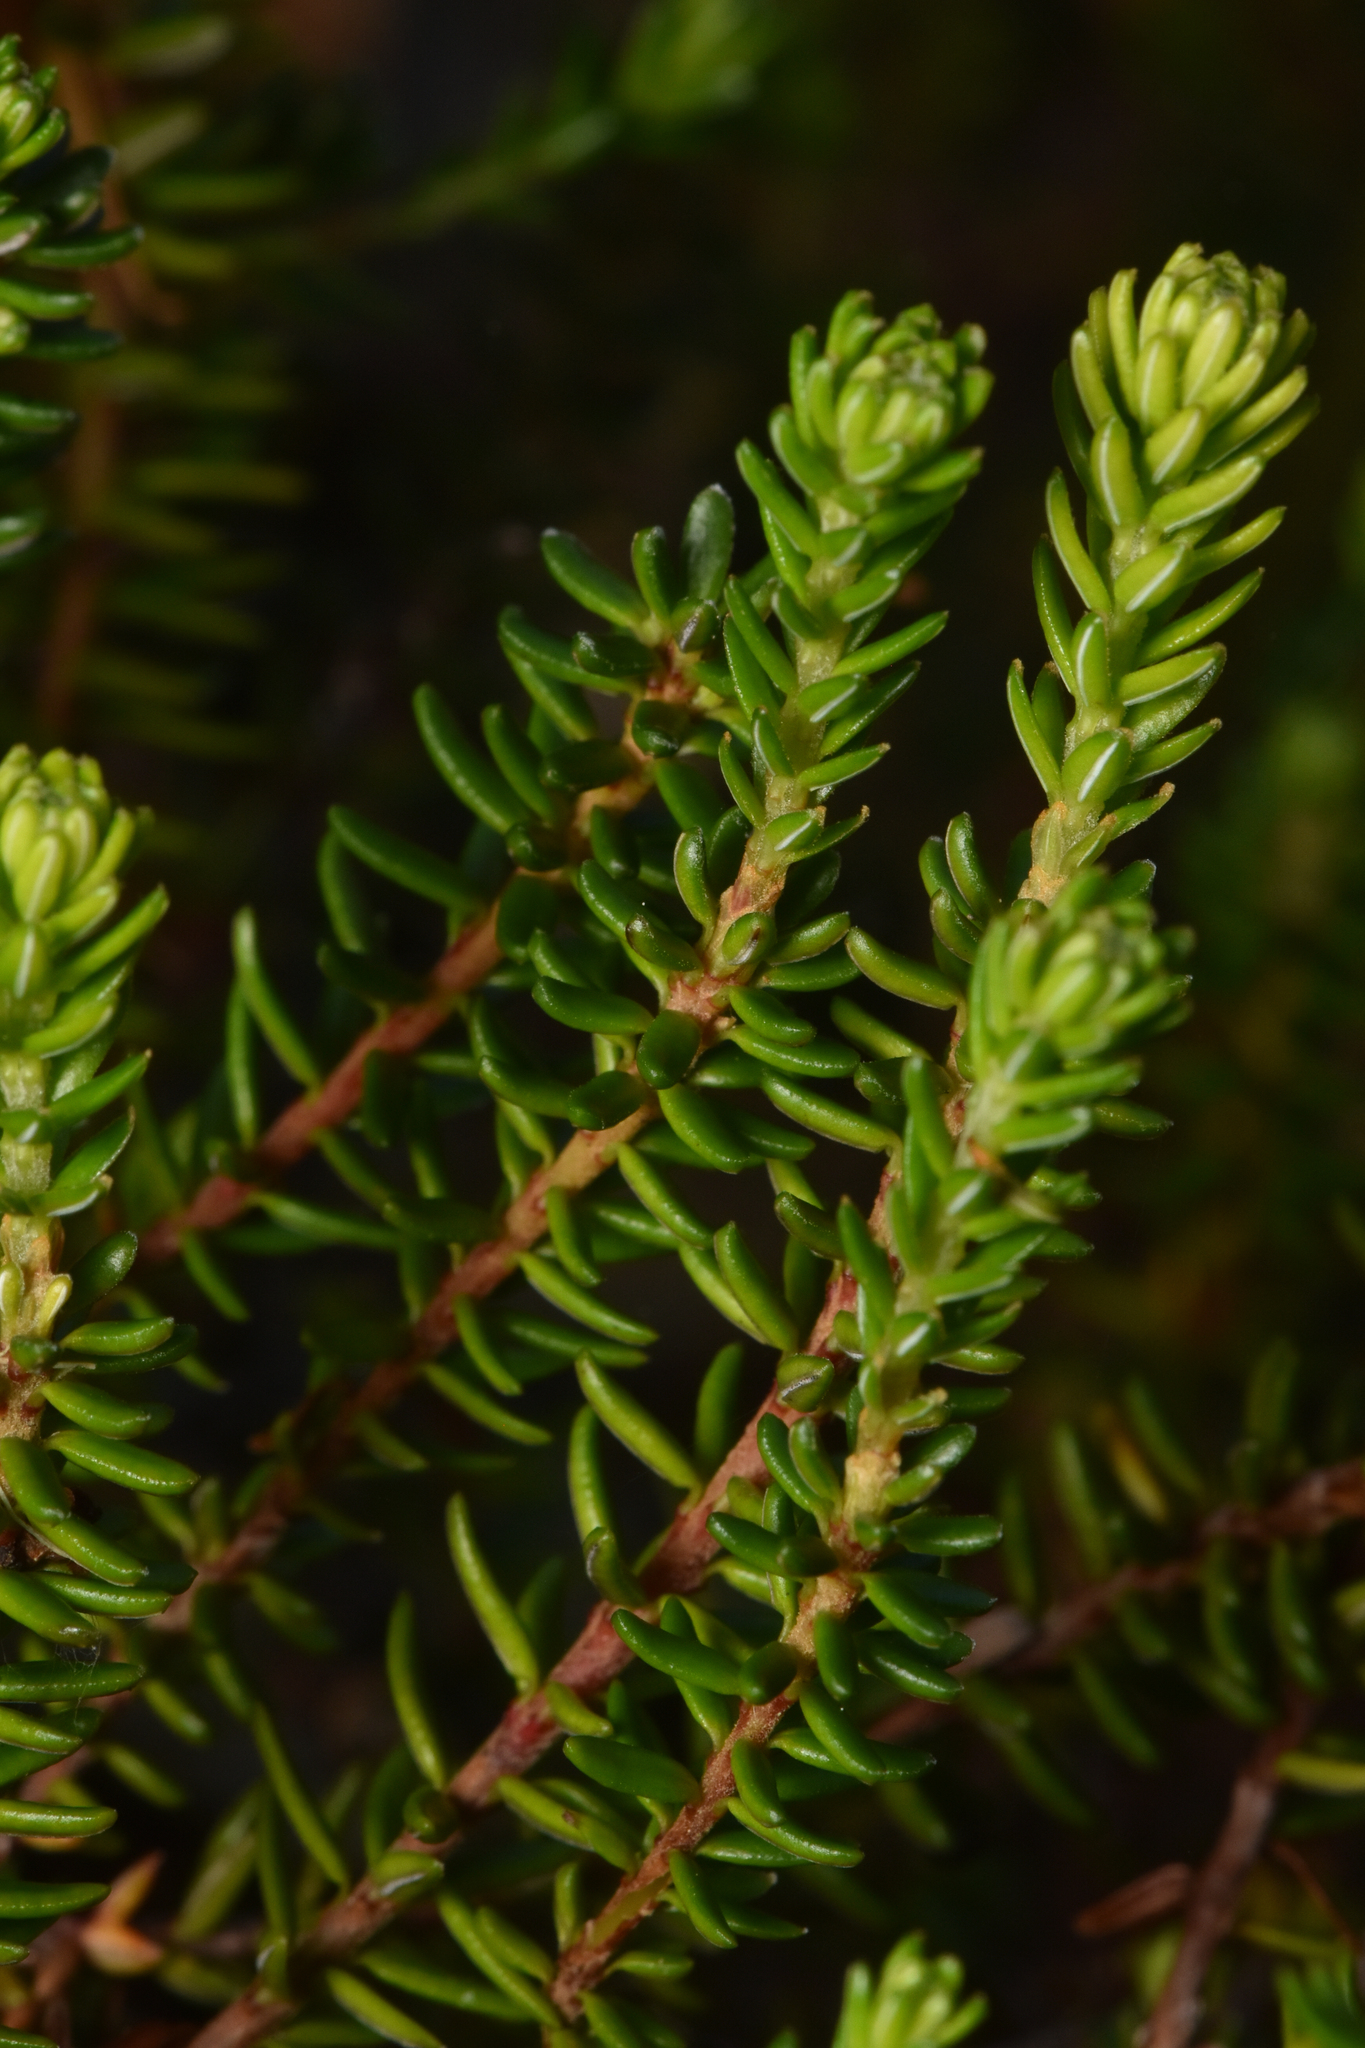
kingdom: Plantae
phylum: Tracheophyta
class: Magnoliopsida
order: Ericales
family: Ericaceae
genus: Empetrum
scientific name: Empetrum nigrum
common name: Black crowberry
